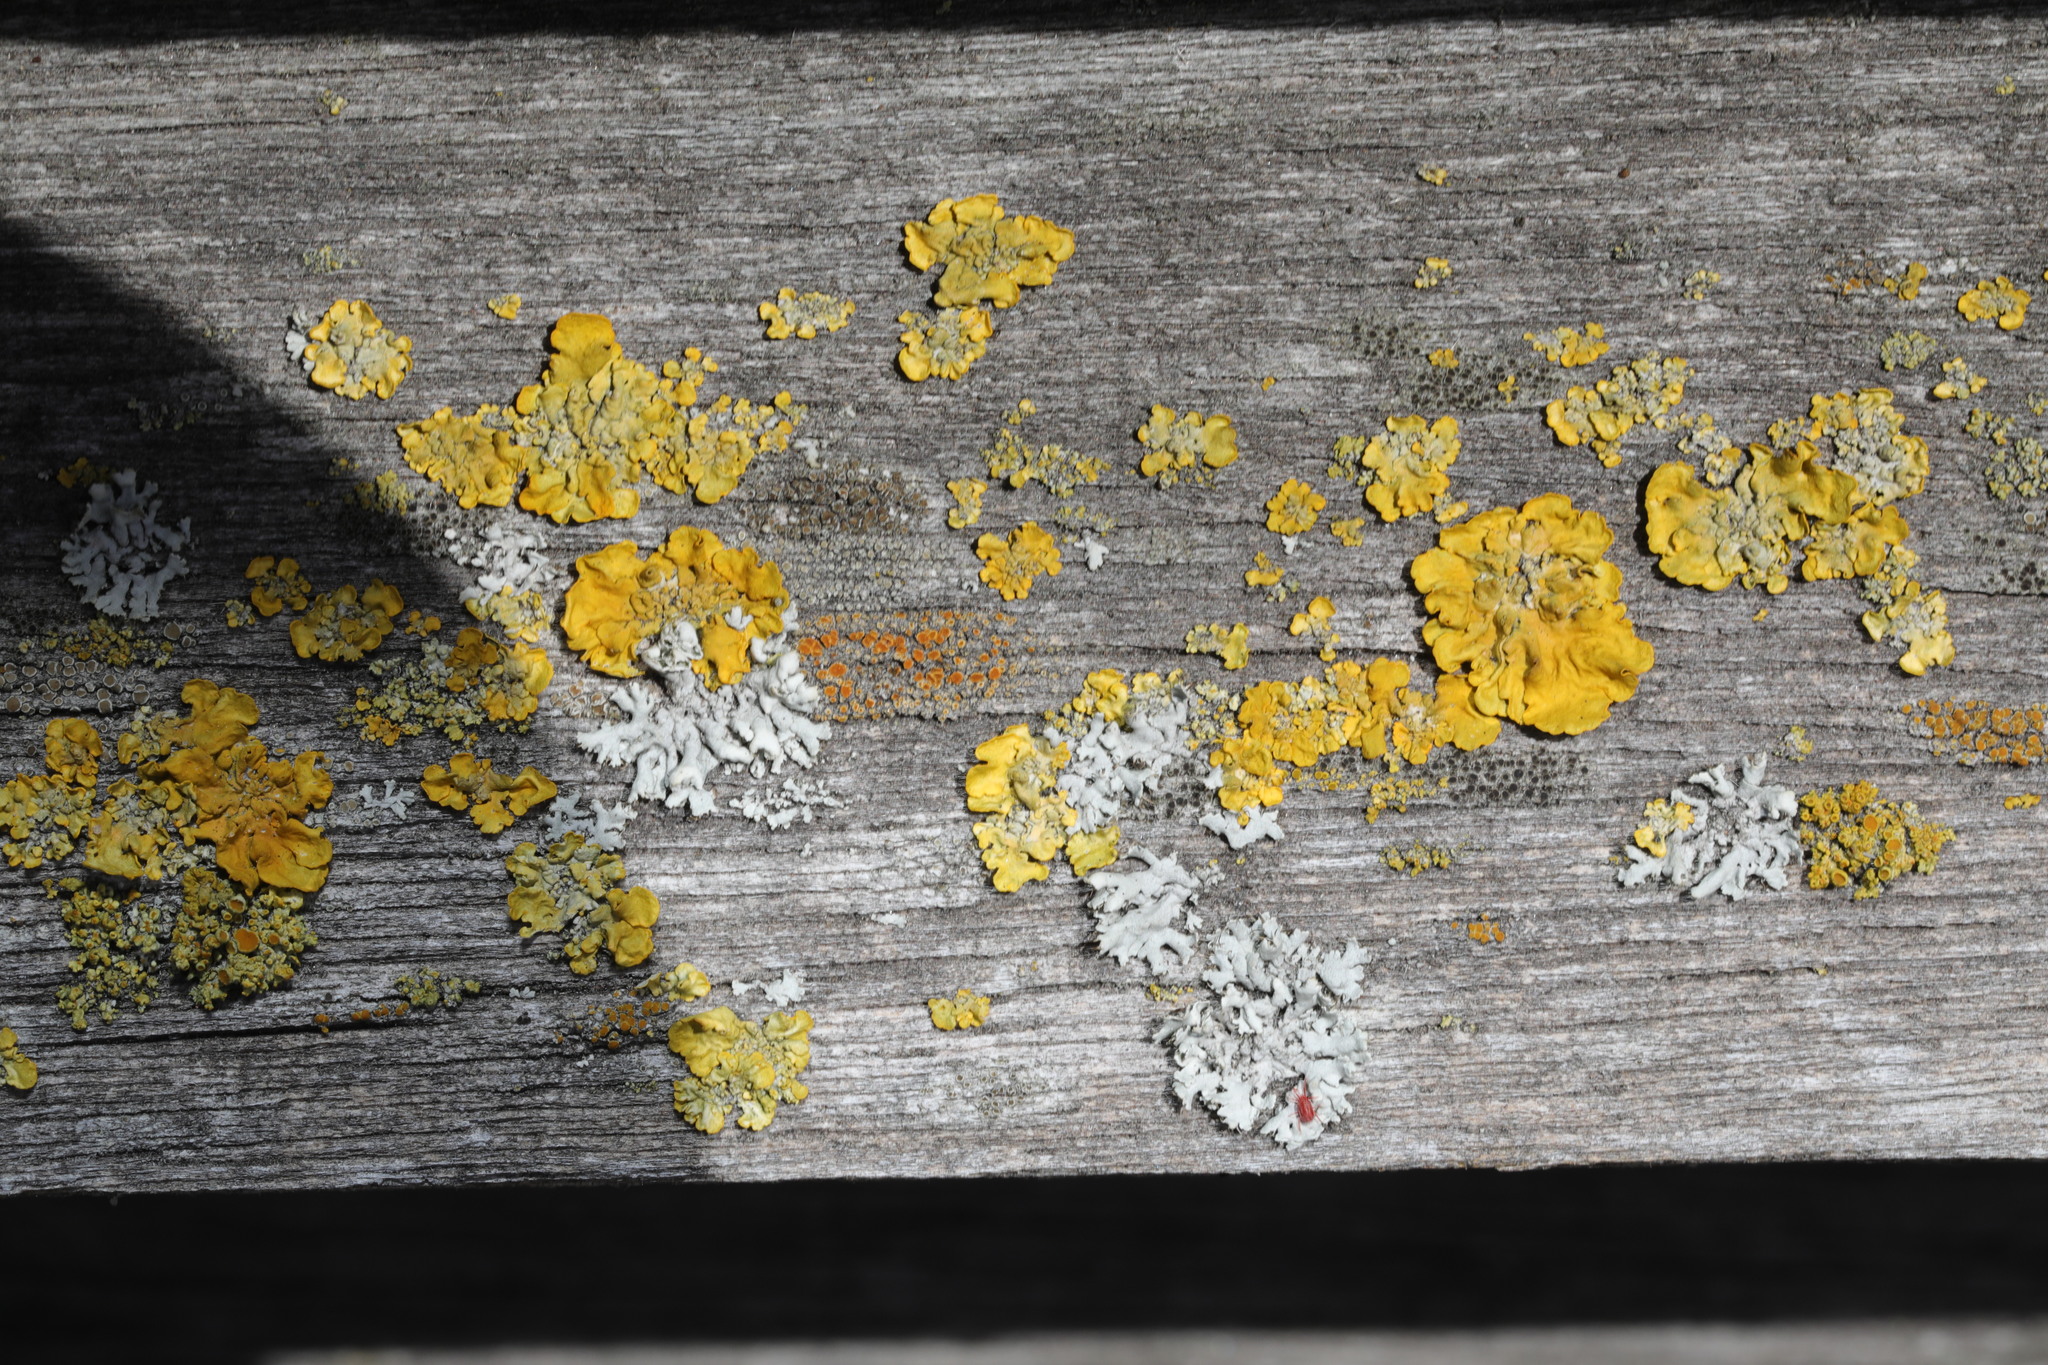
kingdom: Fungi
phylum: Ascomycota
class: Lecanoromycetes
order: Teloschistales
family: Teloschistaceae
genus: Xanthoria
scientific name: Xanthoria parietina
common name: Common orange lichen
